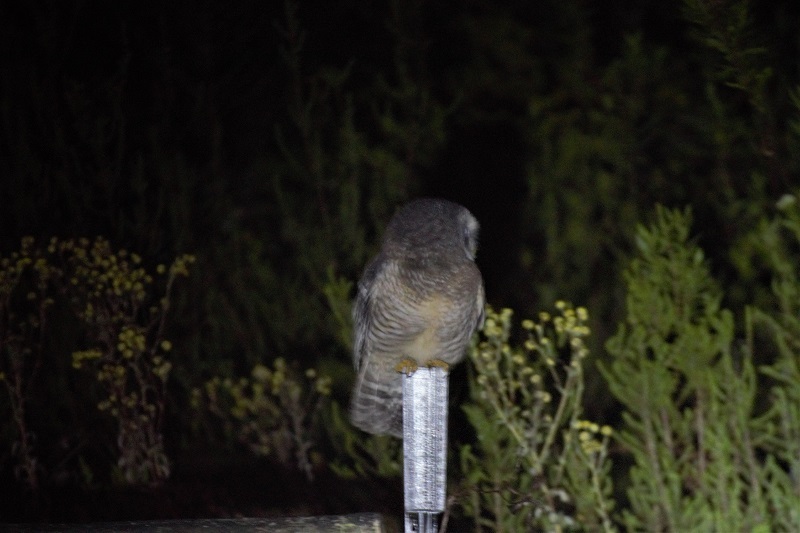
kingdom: Animalia
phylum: Chordata
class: Aves
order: Strigiformes
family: Strigidae
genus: Strix
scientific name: Strix woodfordii
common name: African wood owl
